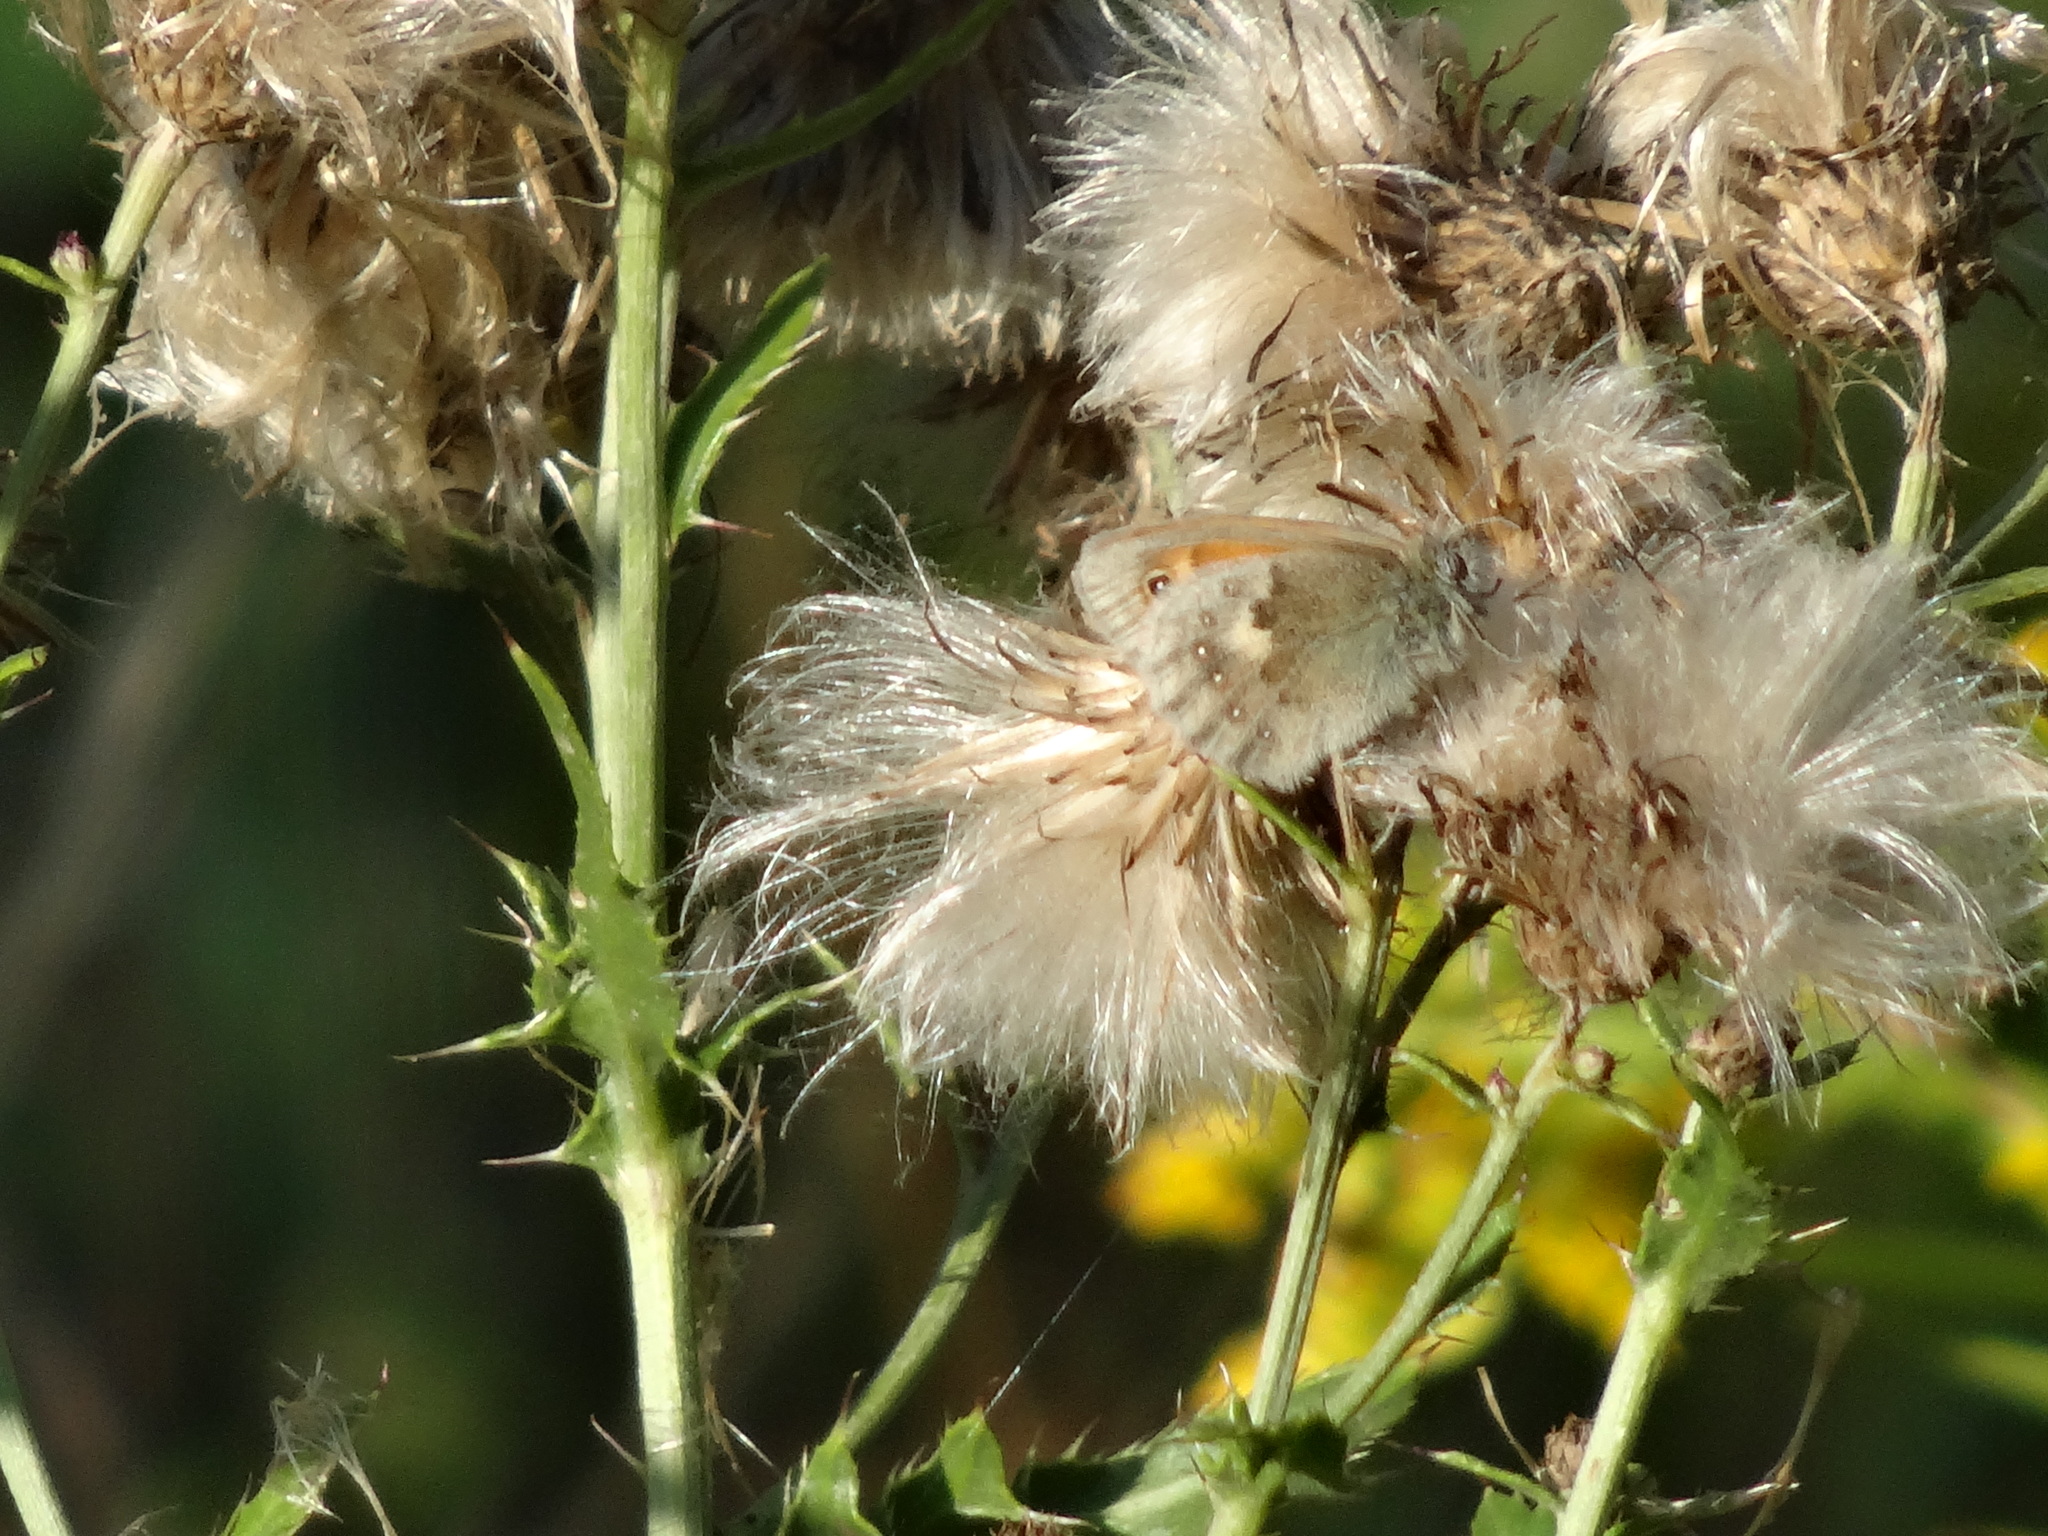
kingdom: Animalia
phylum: Arthropoda
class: Insecta
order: Lepidoptera
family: Nymphalidae
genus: Coenonympha
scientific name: Coenonympha pamphilus
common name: Small heath
